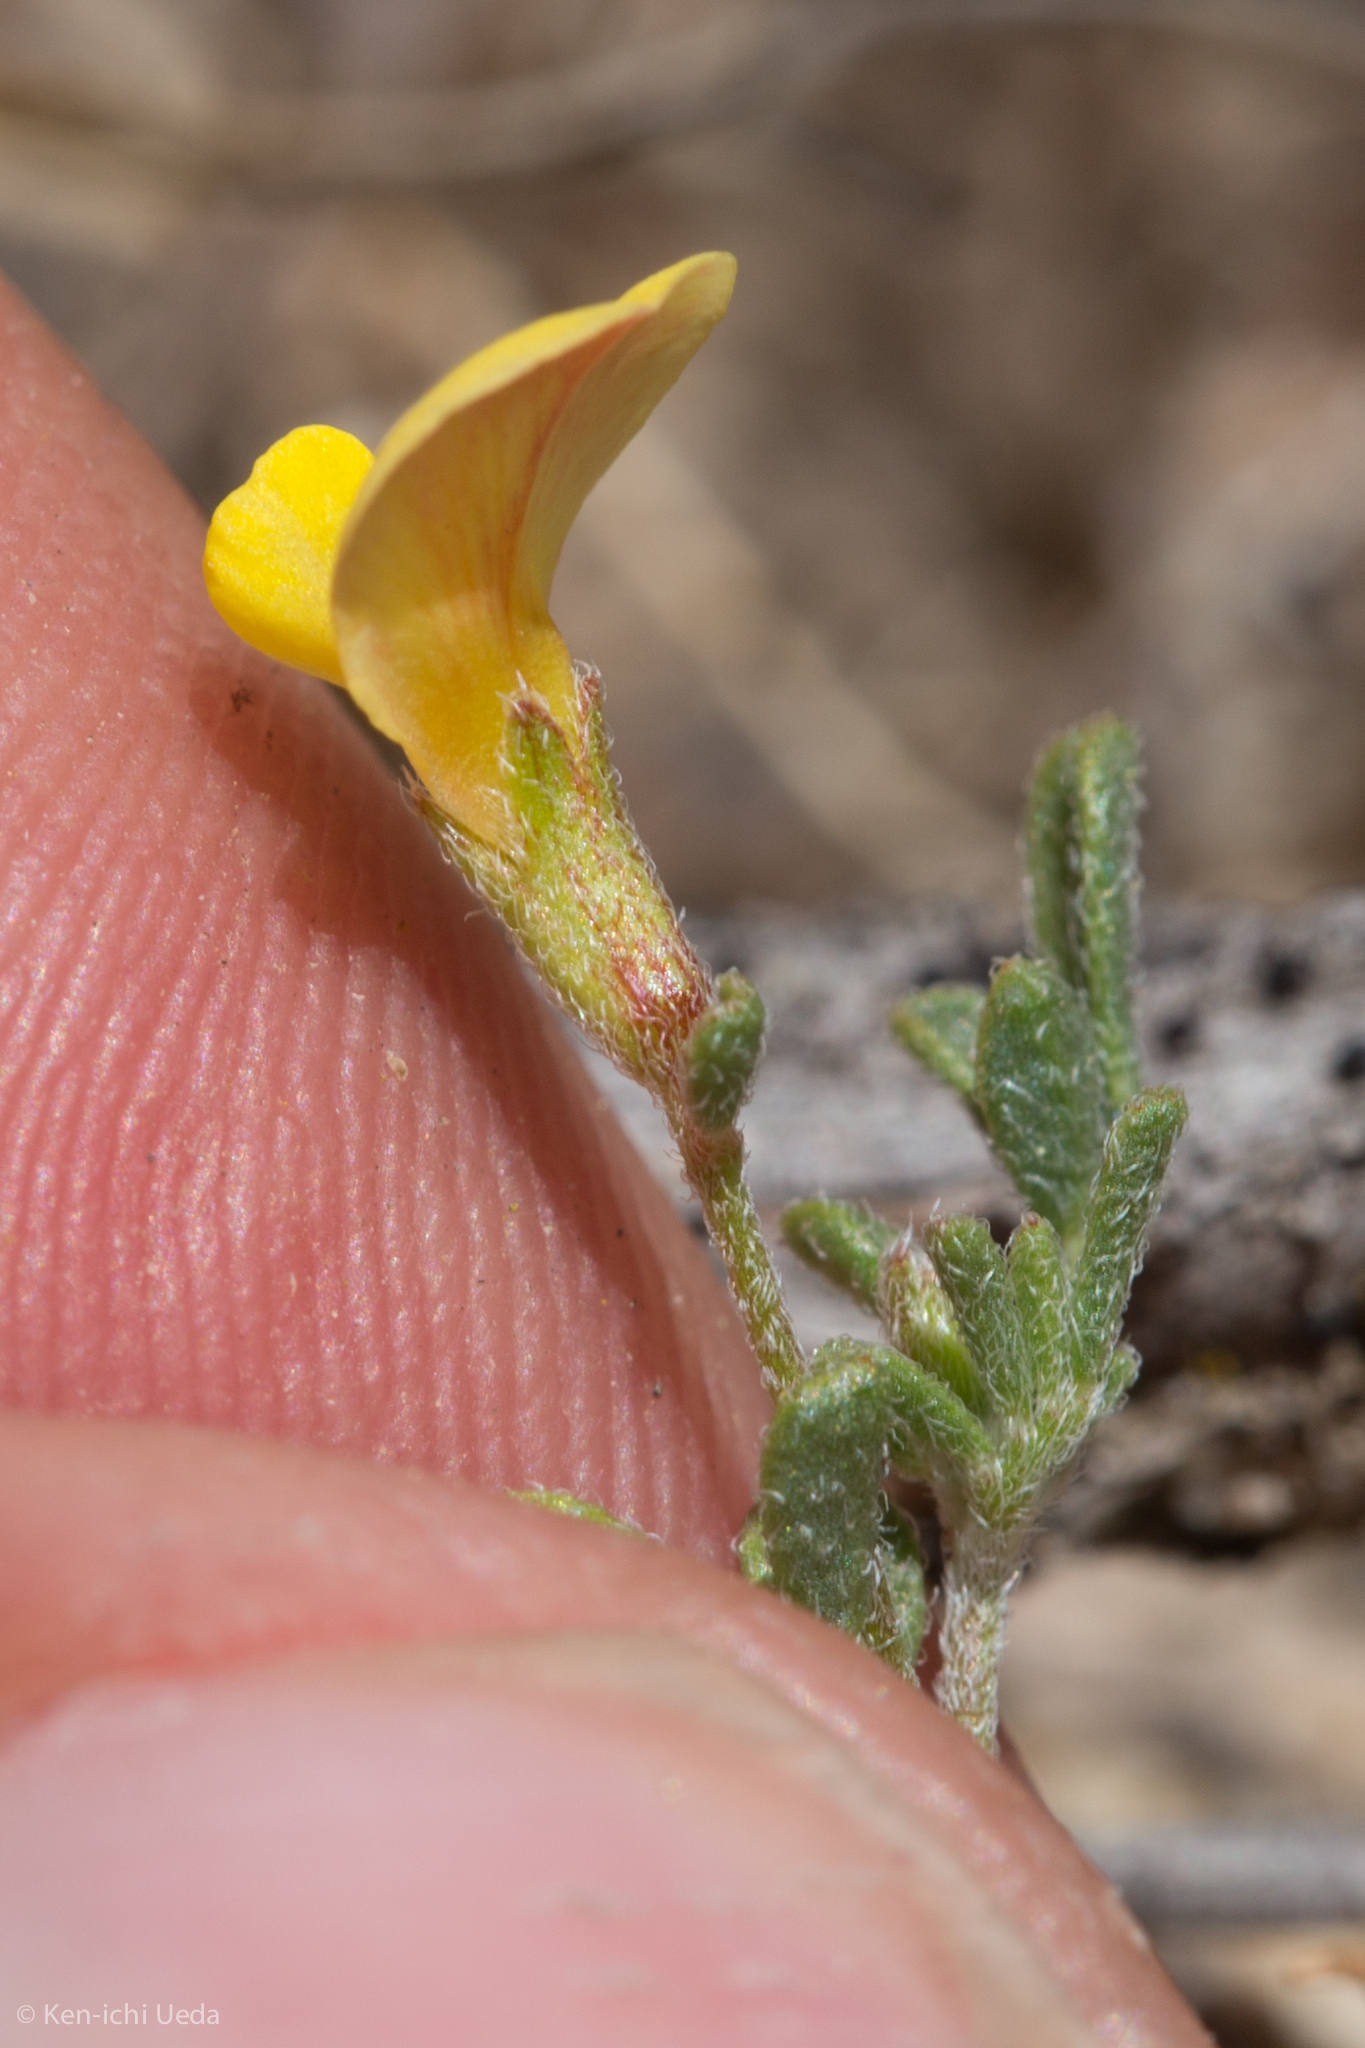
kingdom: Plantae
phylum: Tracheophyta
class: Magnoliopsida
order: Fabales
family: Fabaceae
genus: Acmispon
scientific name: Acmispon strigosus
